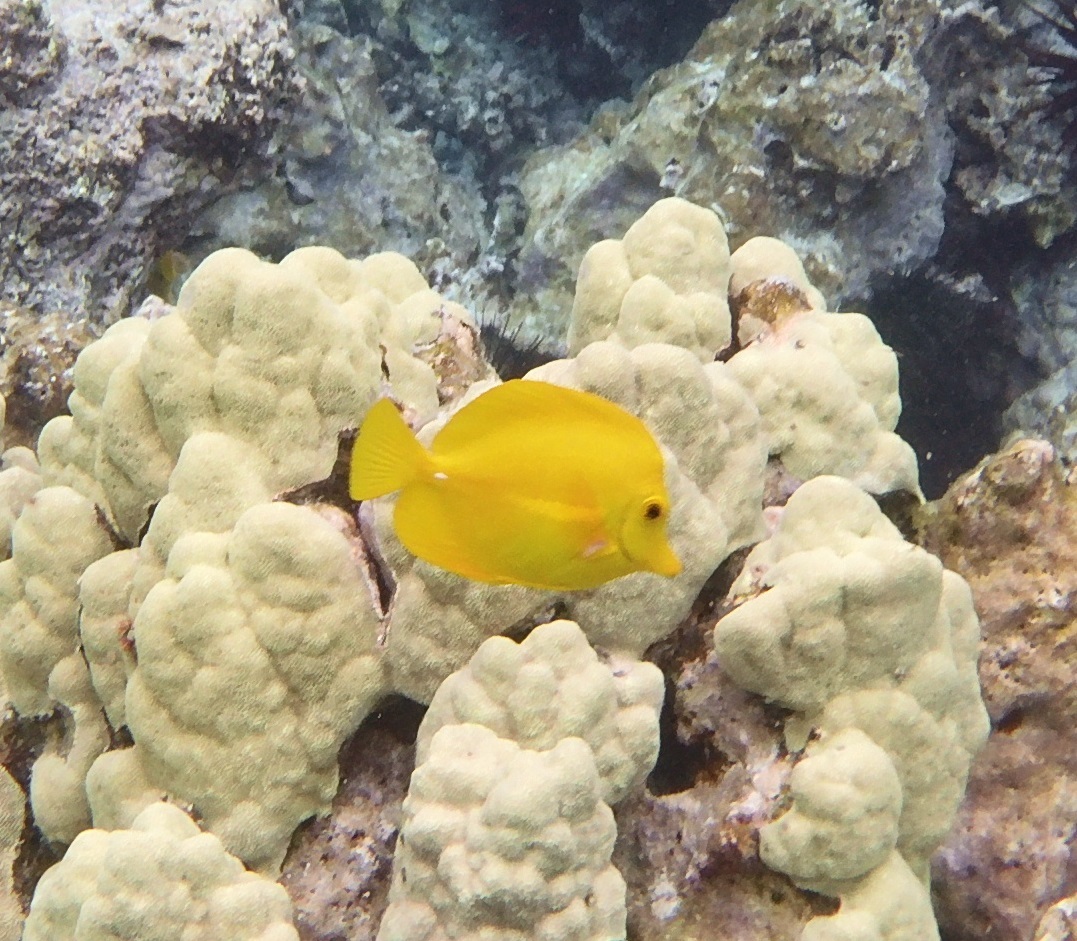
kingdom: Animalia
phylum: Chordata
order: Perciformes
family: Acanthuridae
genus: Zebrasoma
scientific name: Zebrasoma flavescens
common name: Yellow tang
